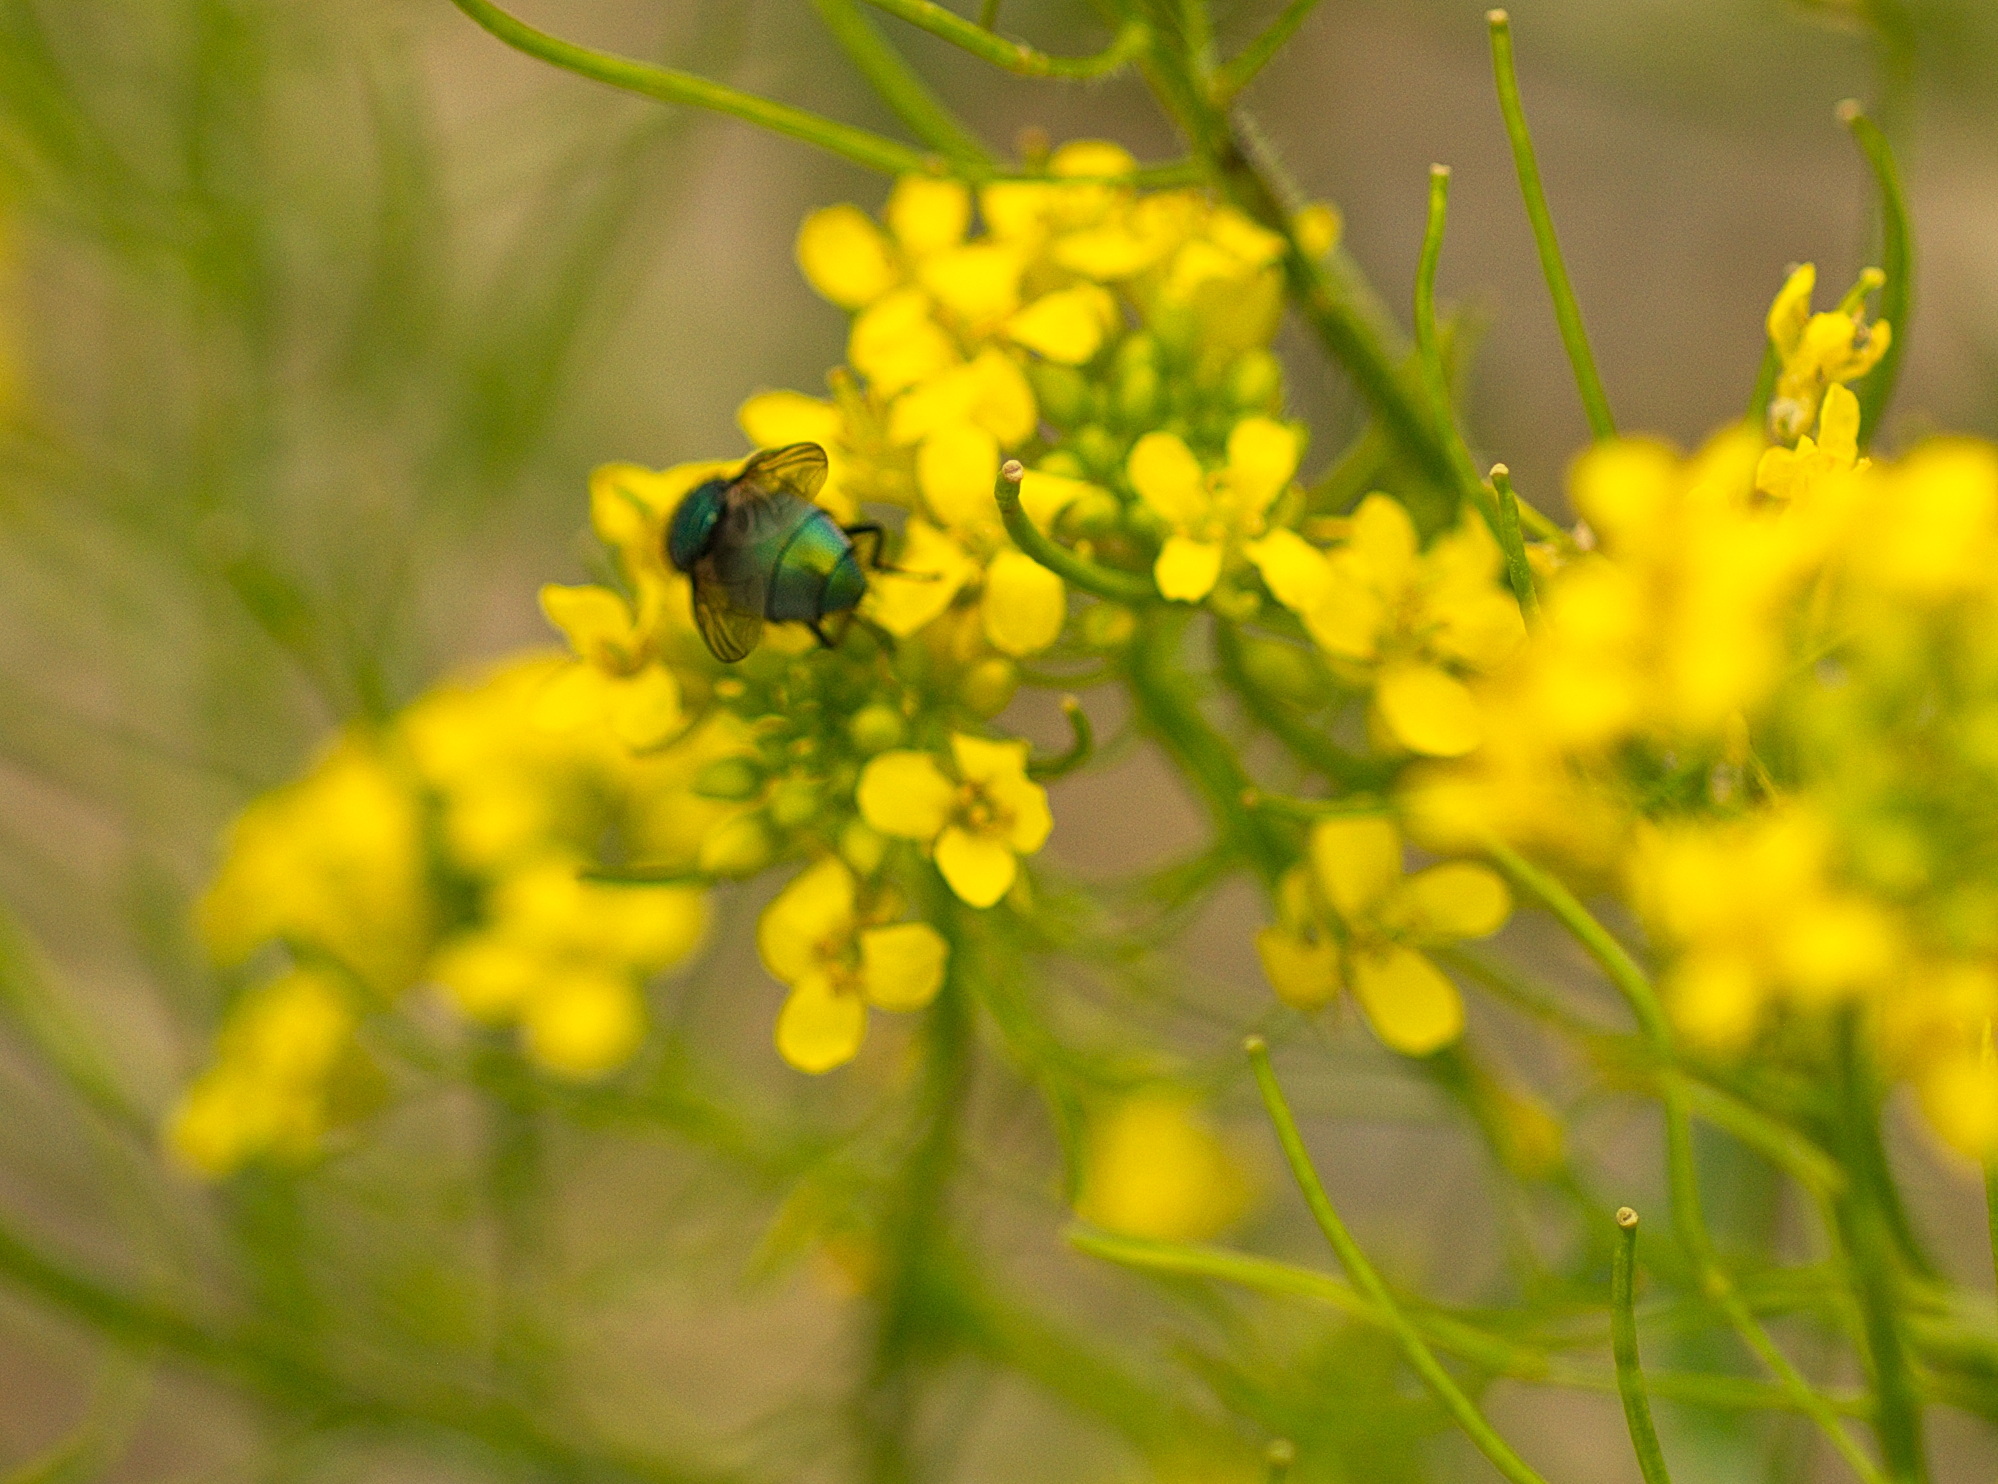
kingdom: Animalia
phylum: Arthropoda
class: Insecta
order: Diptera
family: Calliphoridae
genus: Lucilia
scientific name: Lucilia
